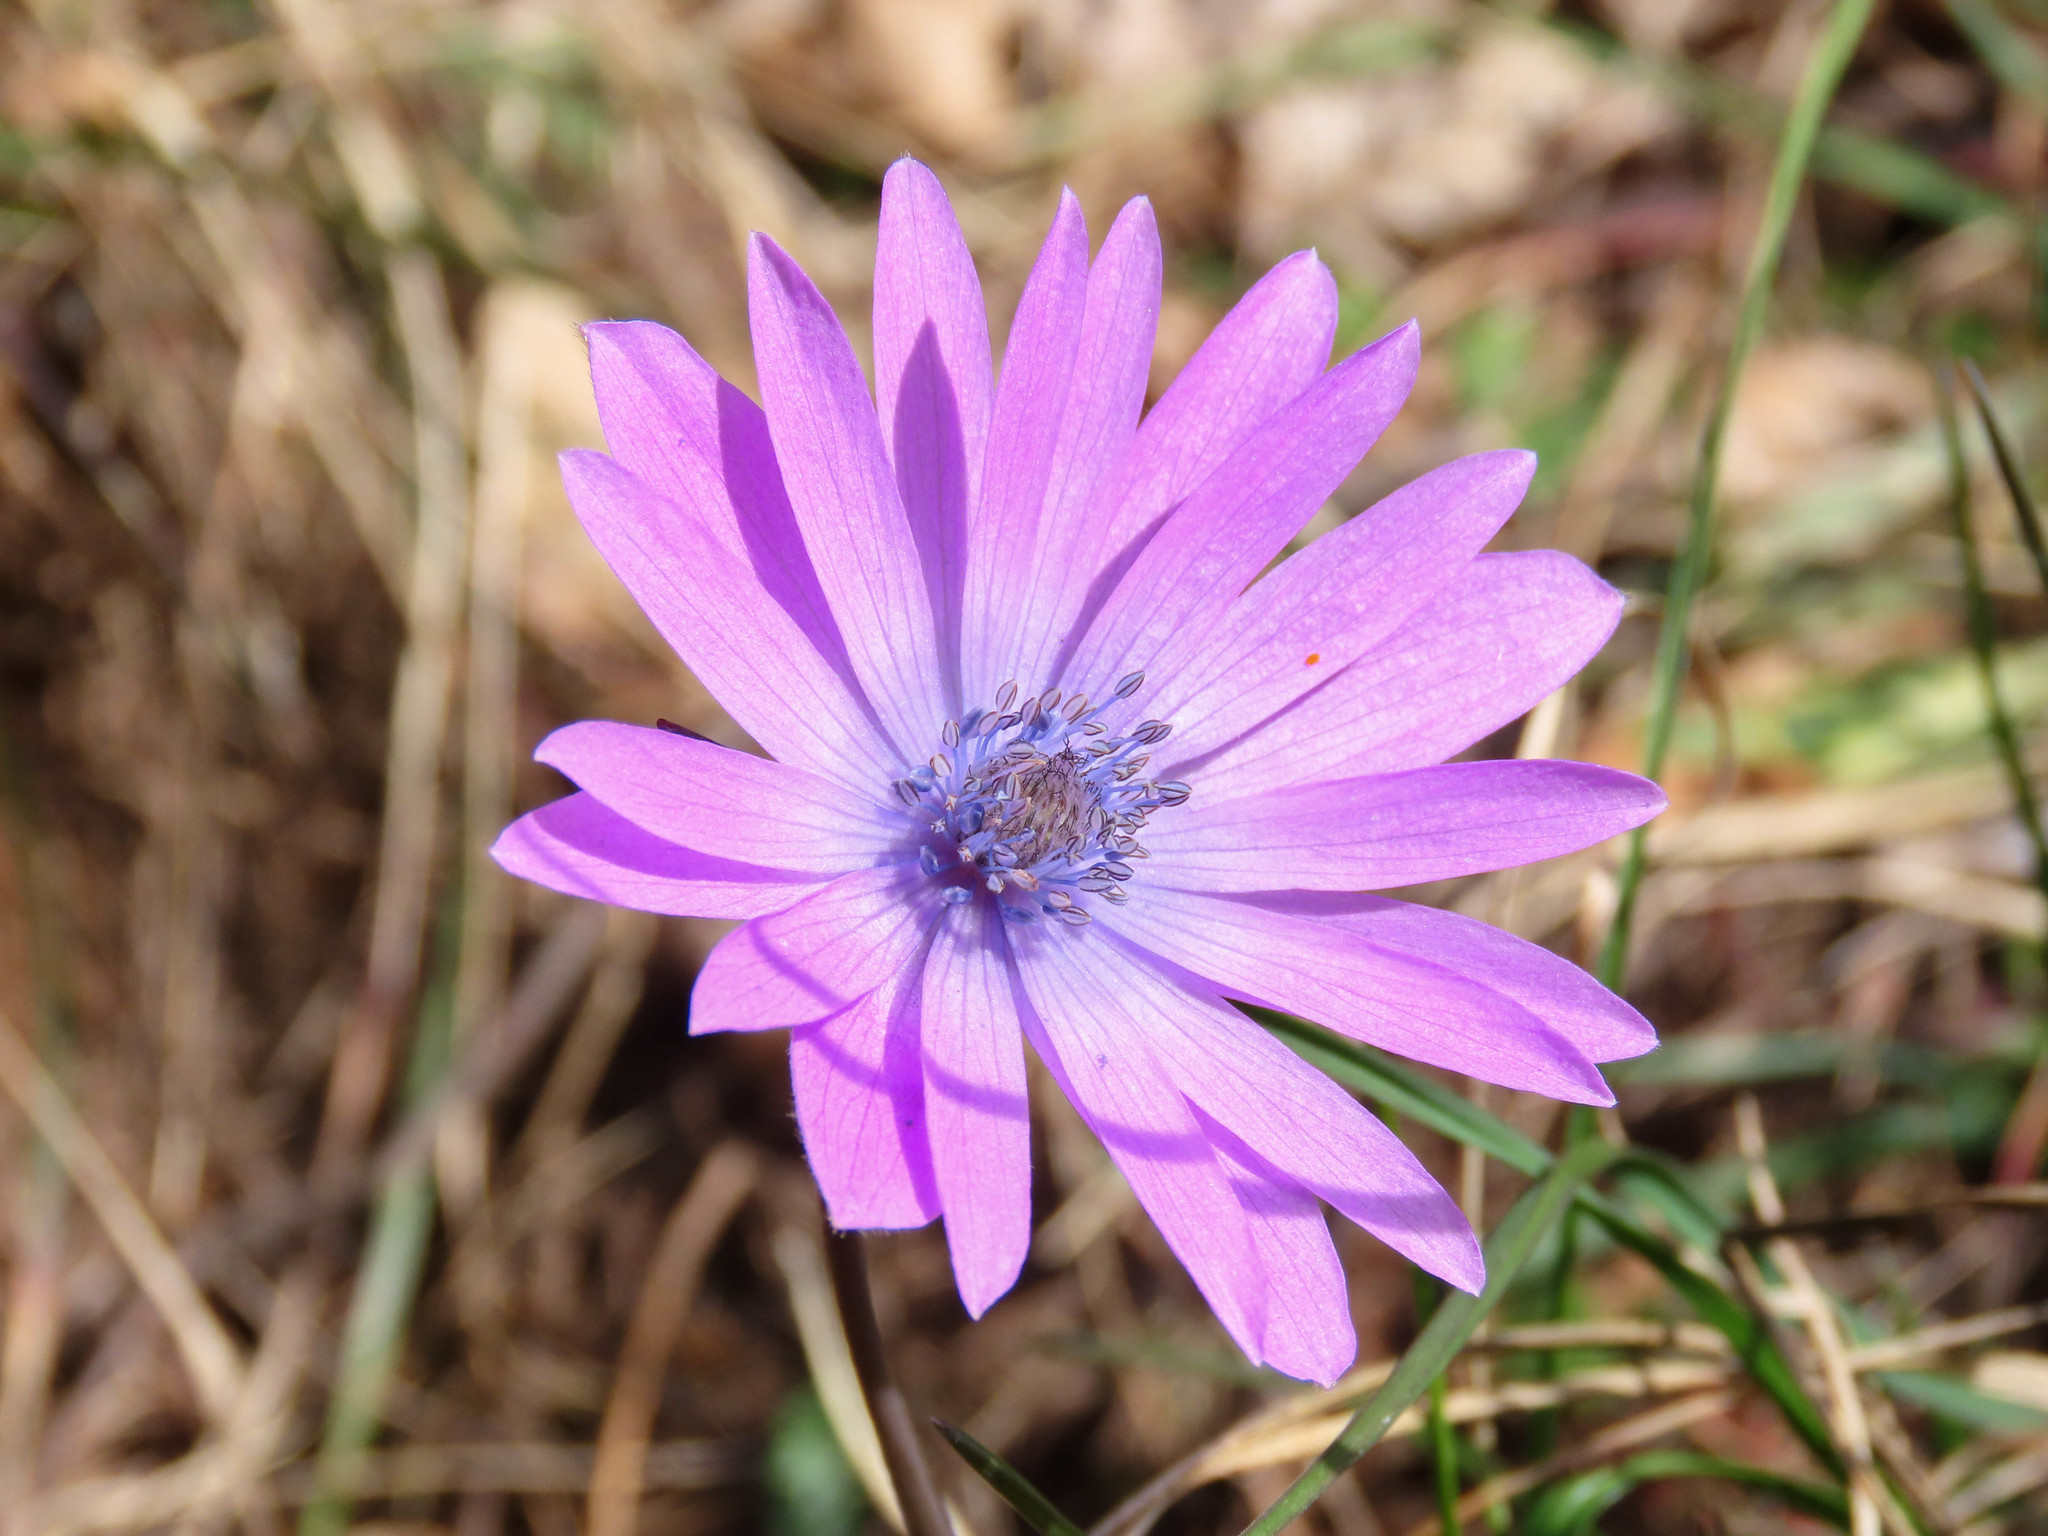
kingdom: Plantae
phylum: Tracheophyta
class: Magnoliopsida
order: Ranunculales
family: Ranunculaceae
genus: Anemone
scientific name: Anemone hortensis
